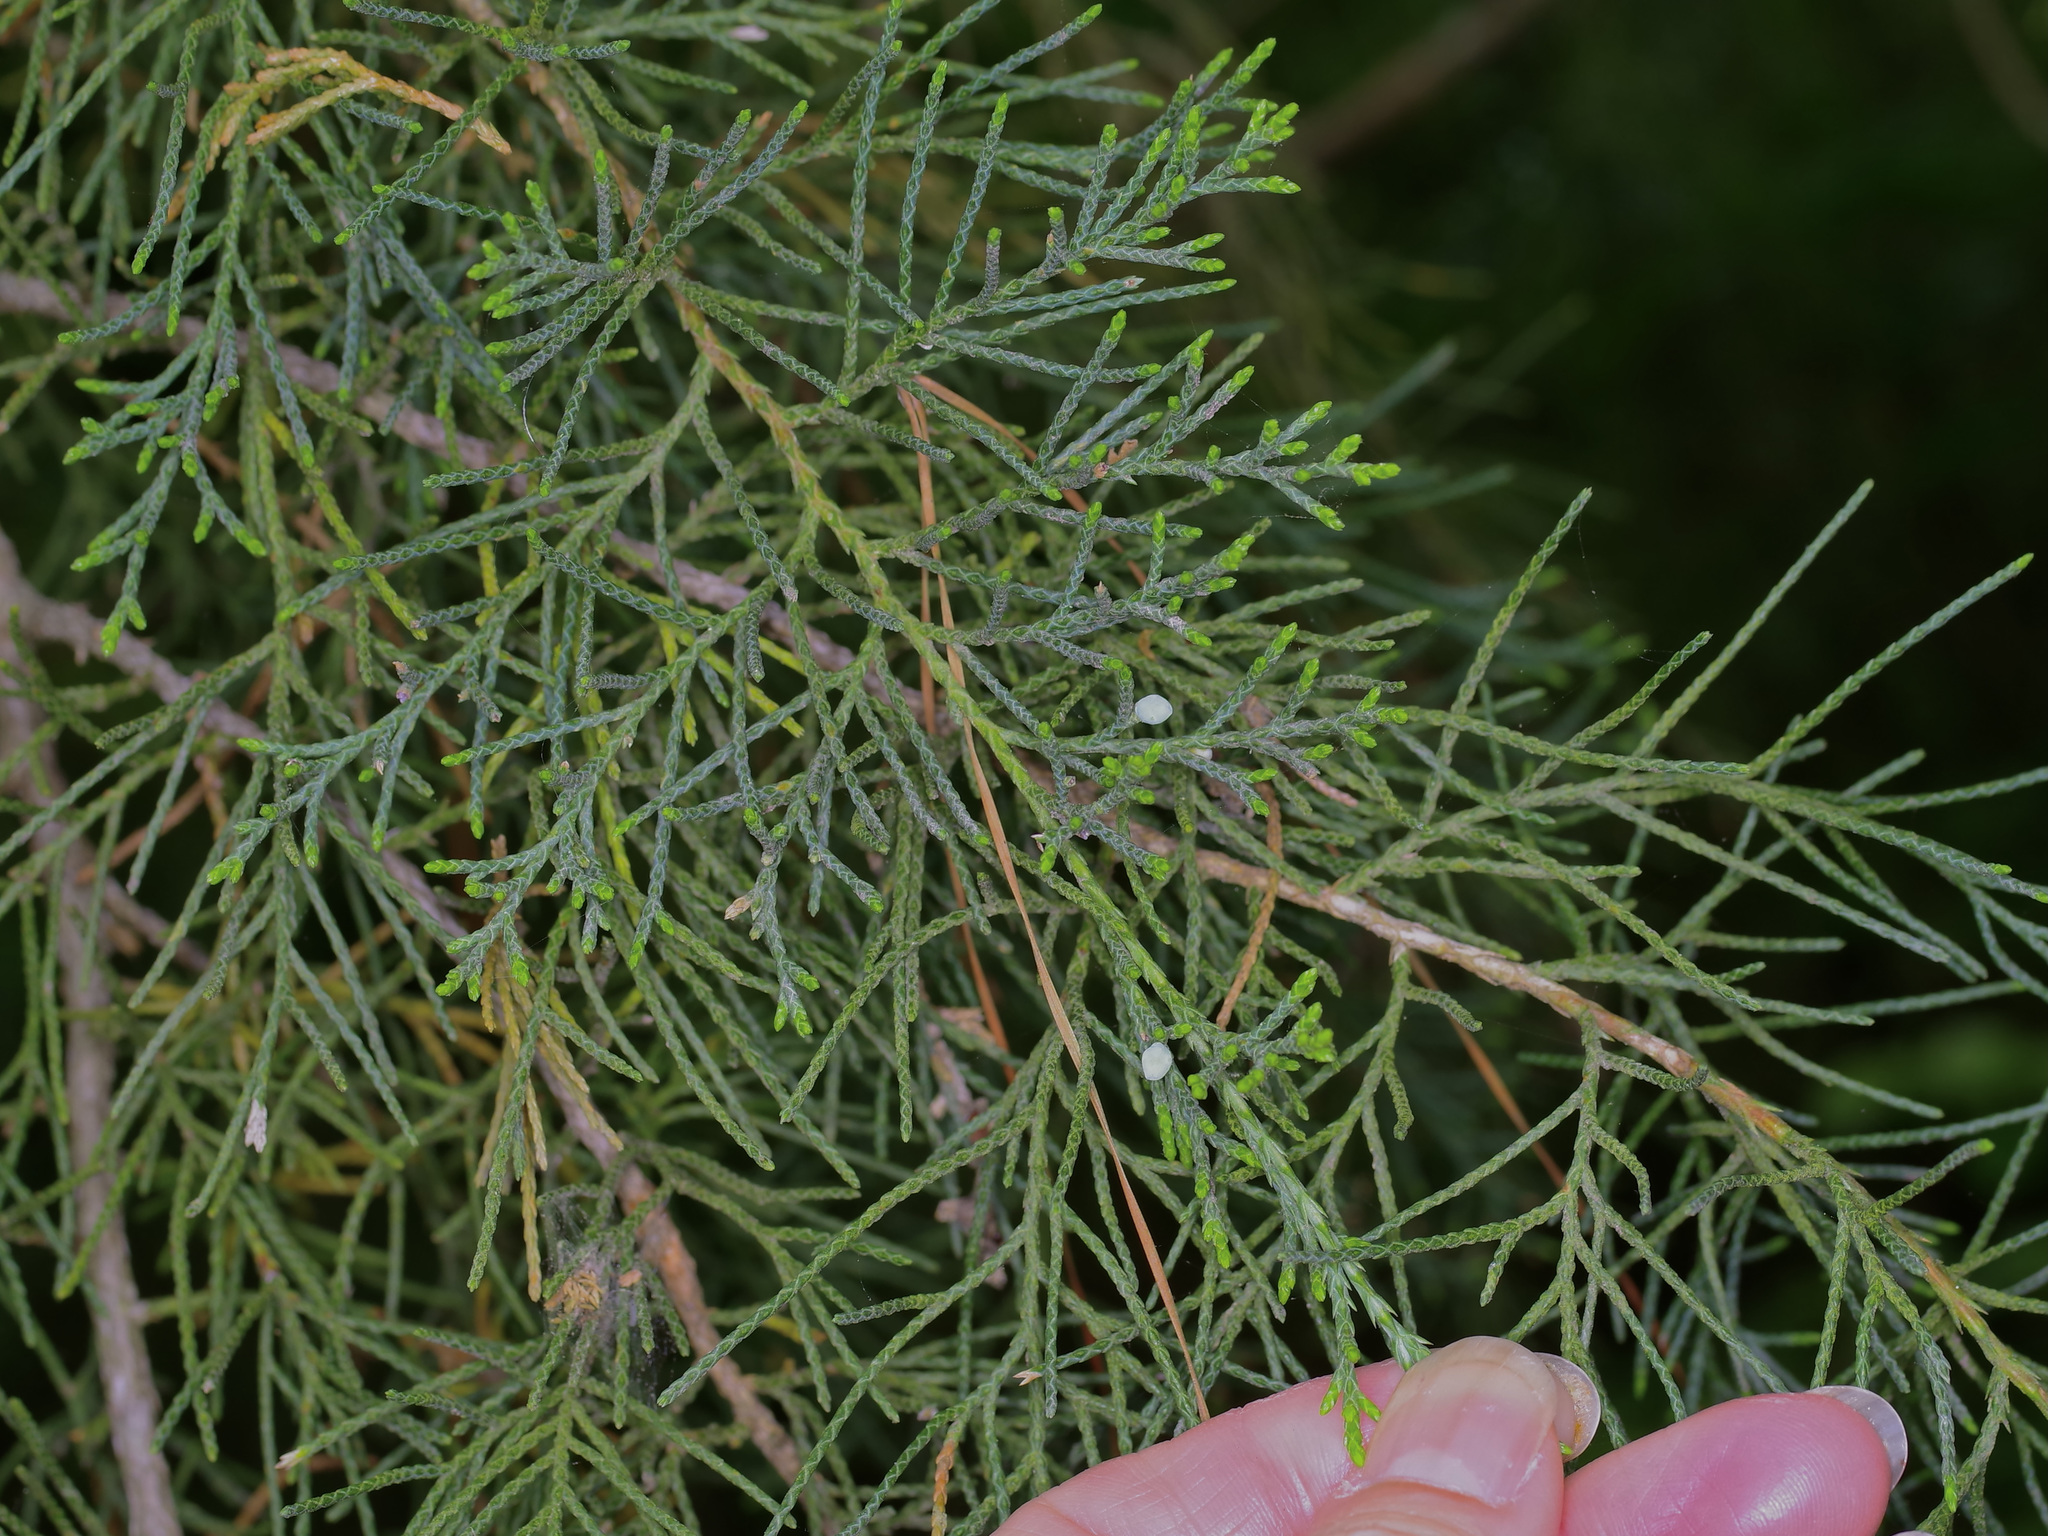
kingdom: Plantae
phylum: Tracheophyta
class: Pinopsida
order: Pinales
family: Cupressaceae
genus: Juniperus
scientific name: Juniperus virginiana
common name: Red juniper
